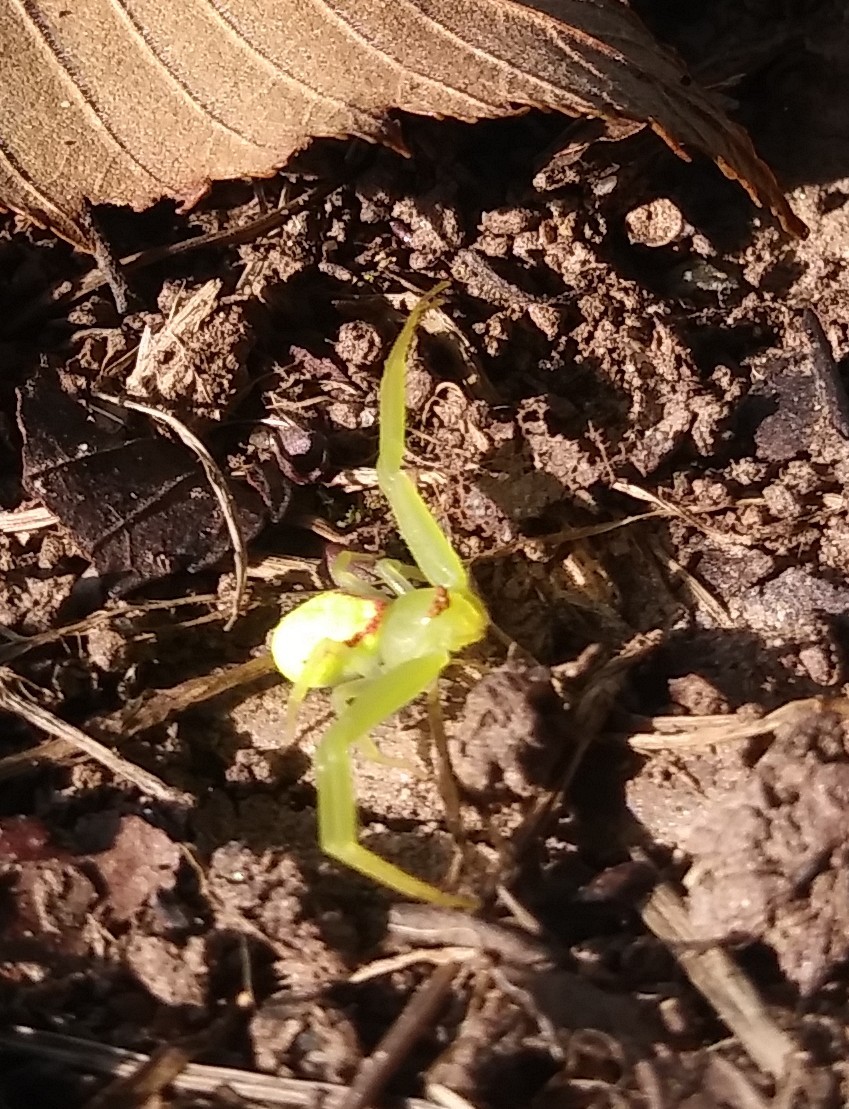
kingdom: Animalia
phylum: Arthropoda
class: Arachnida
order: Araneae
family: Thomisidae
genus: Misumessus
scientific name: Misumessus oblongus
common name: American green crab spider
